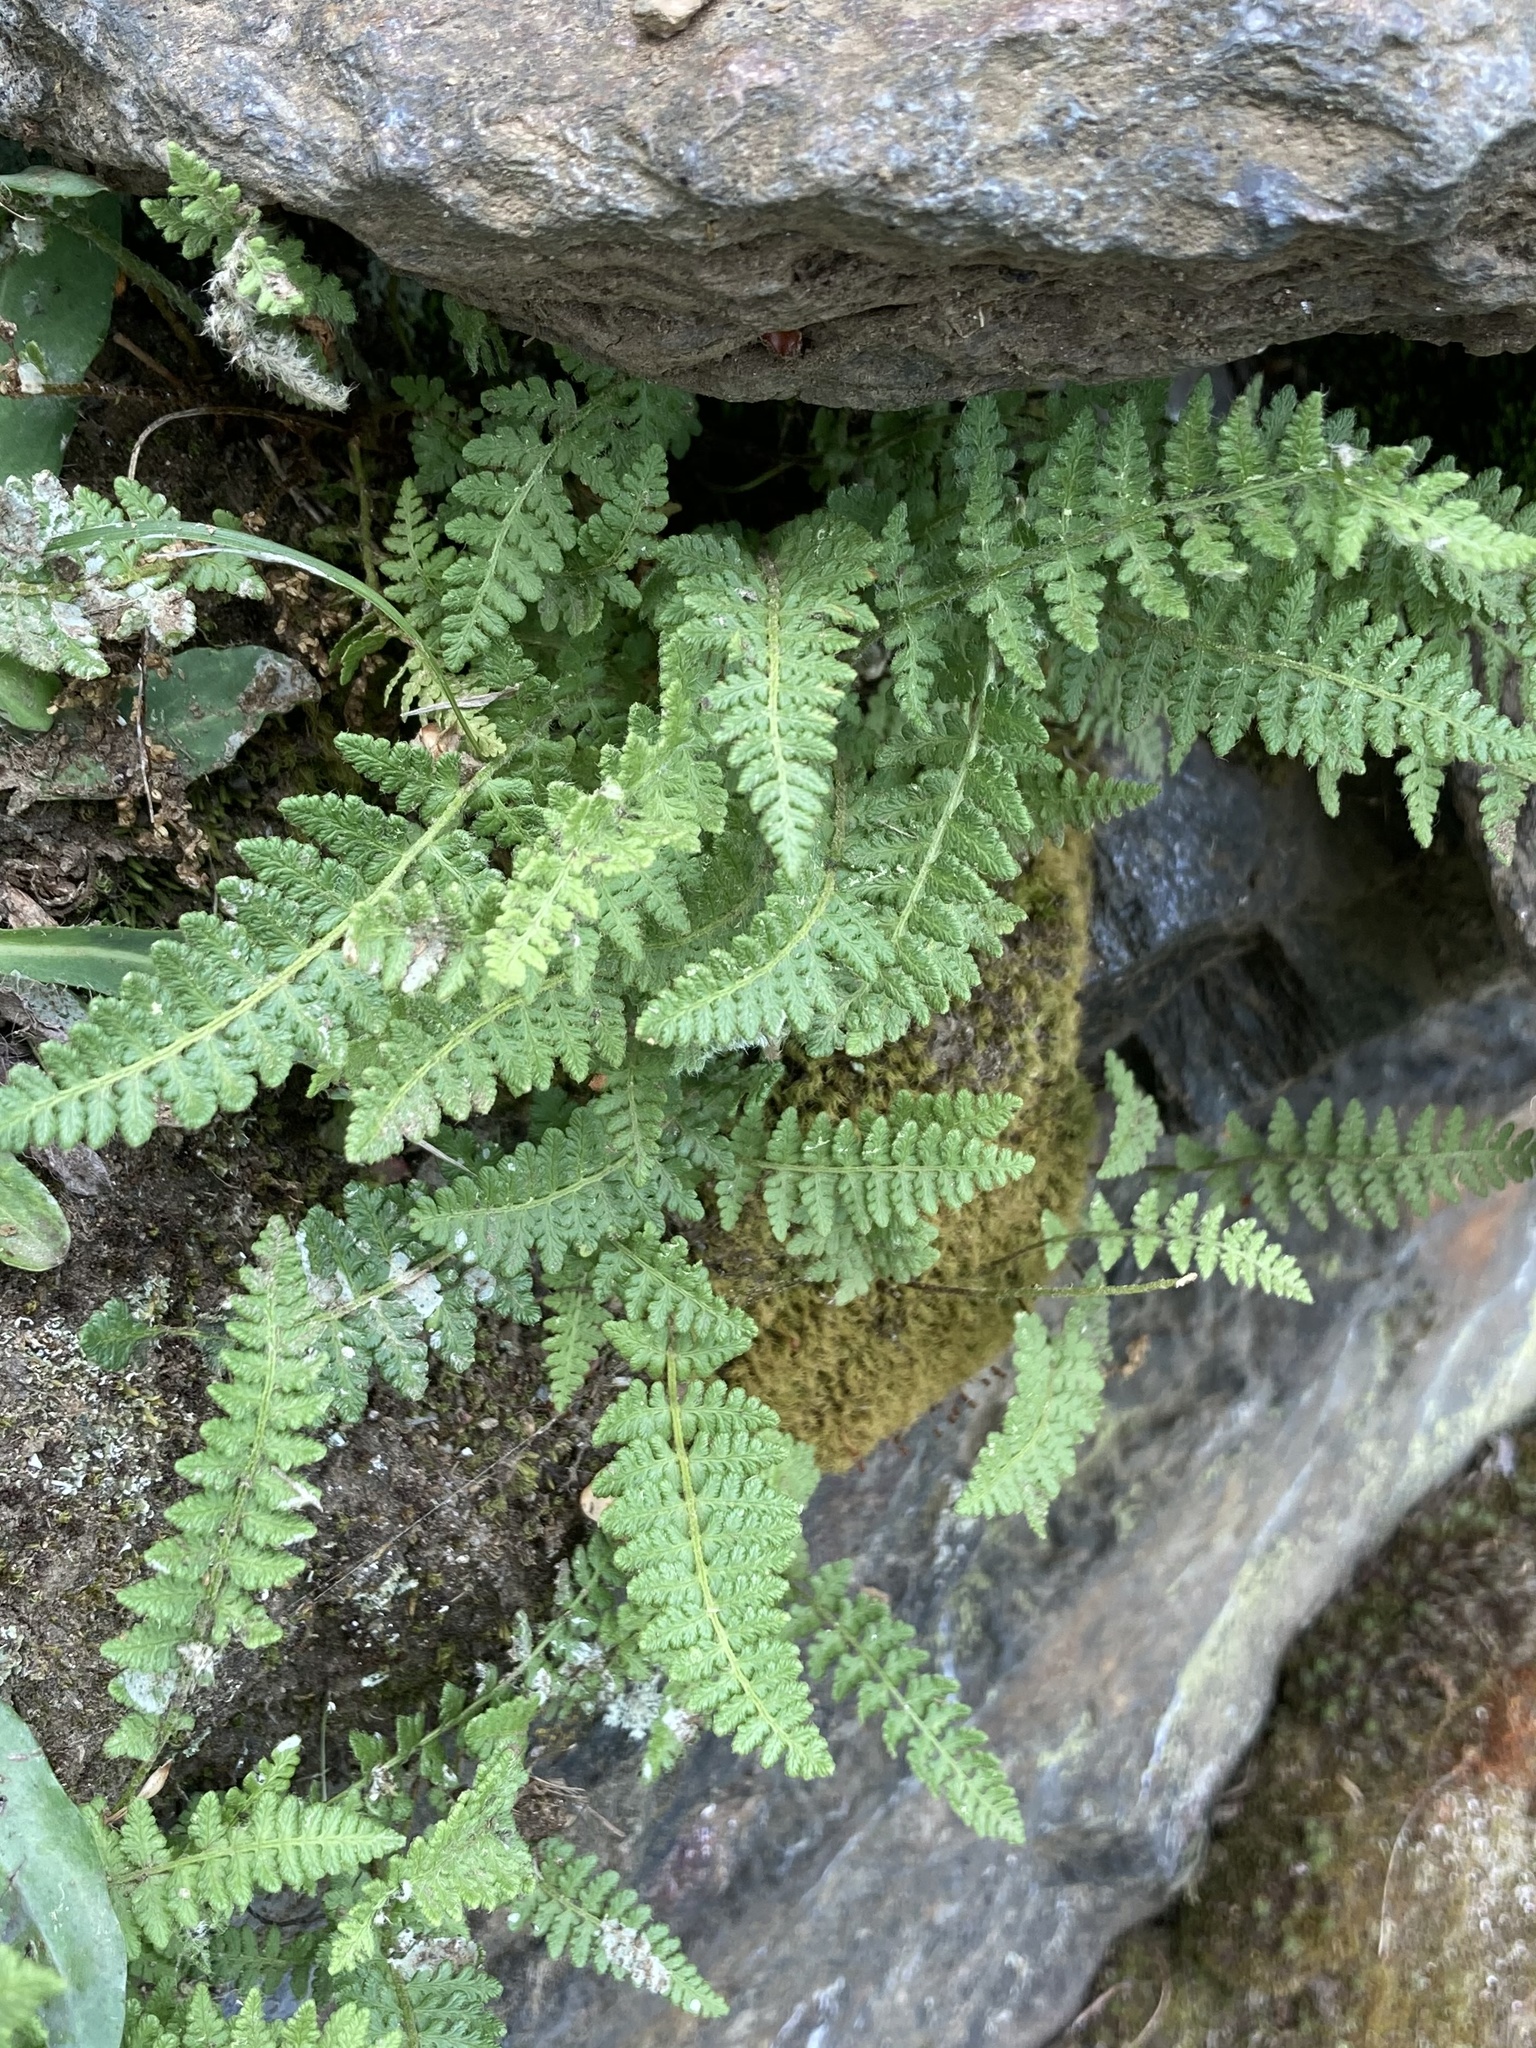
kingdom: Plantae
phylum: Tracheophyta
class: Polypodiopsida
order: Polypodiales
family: Woodsiaceae
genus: Woodsia
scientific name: Woodsia ilvensis
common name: Fragrant woodsia
